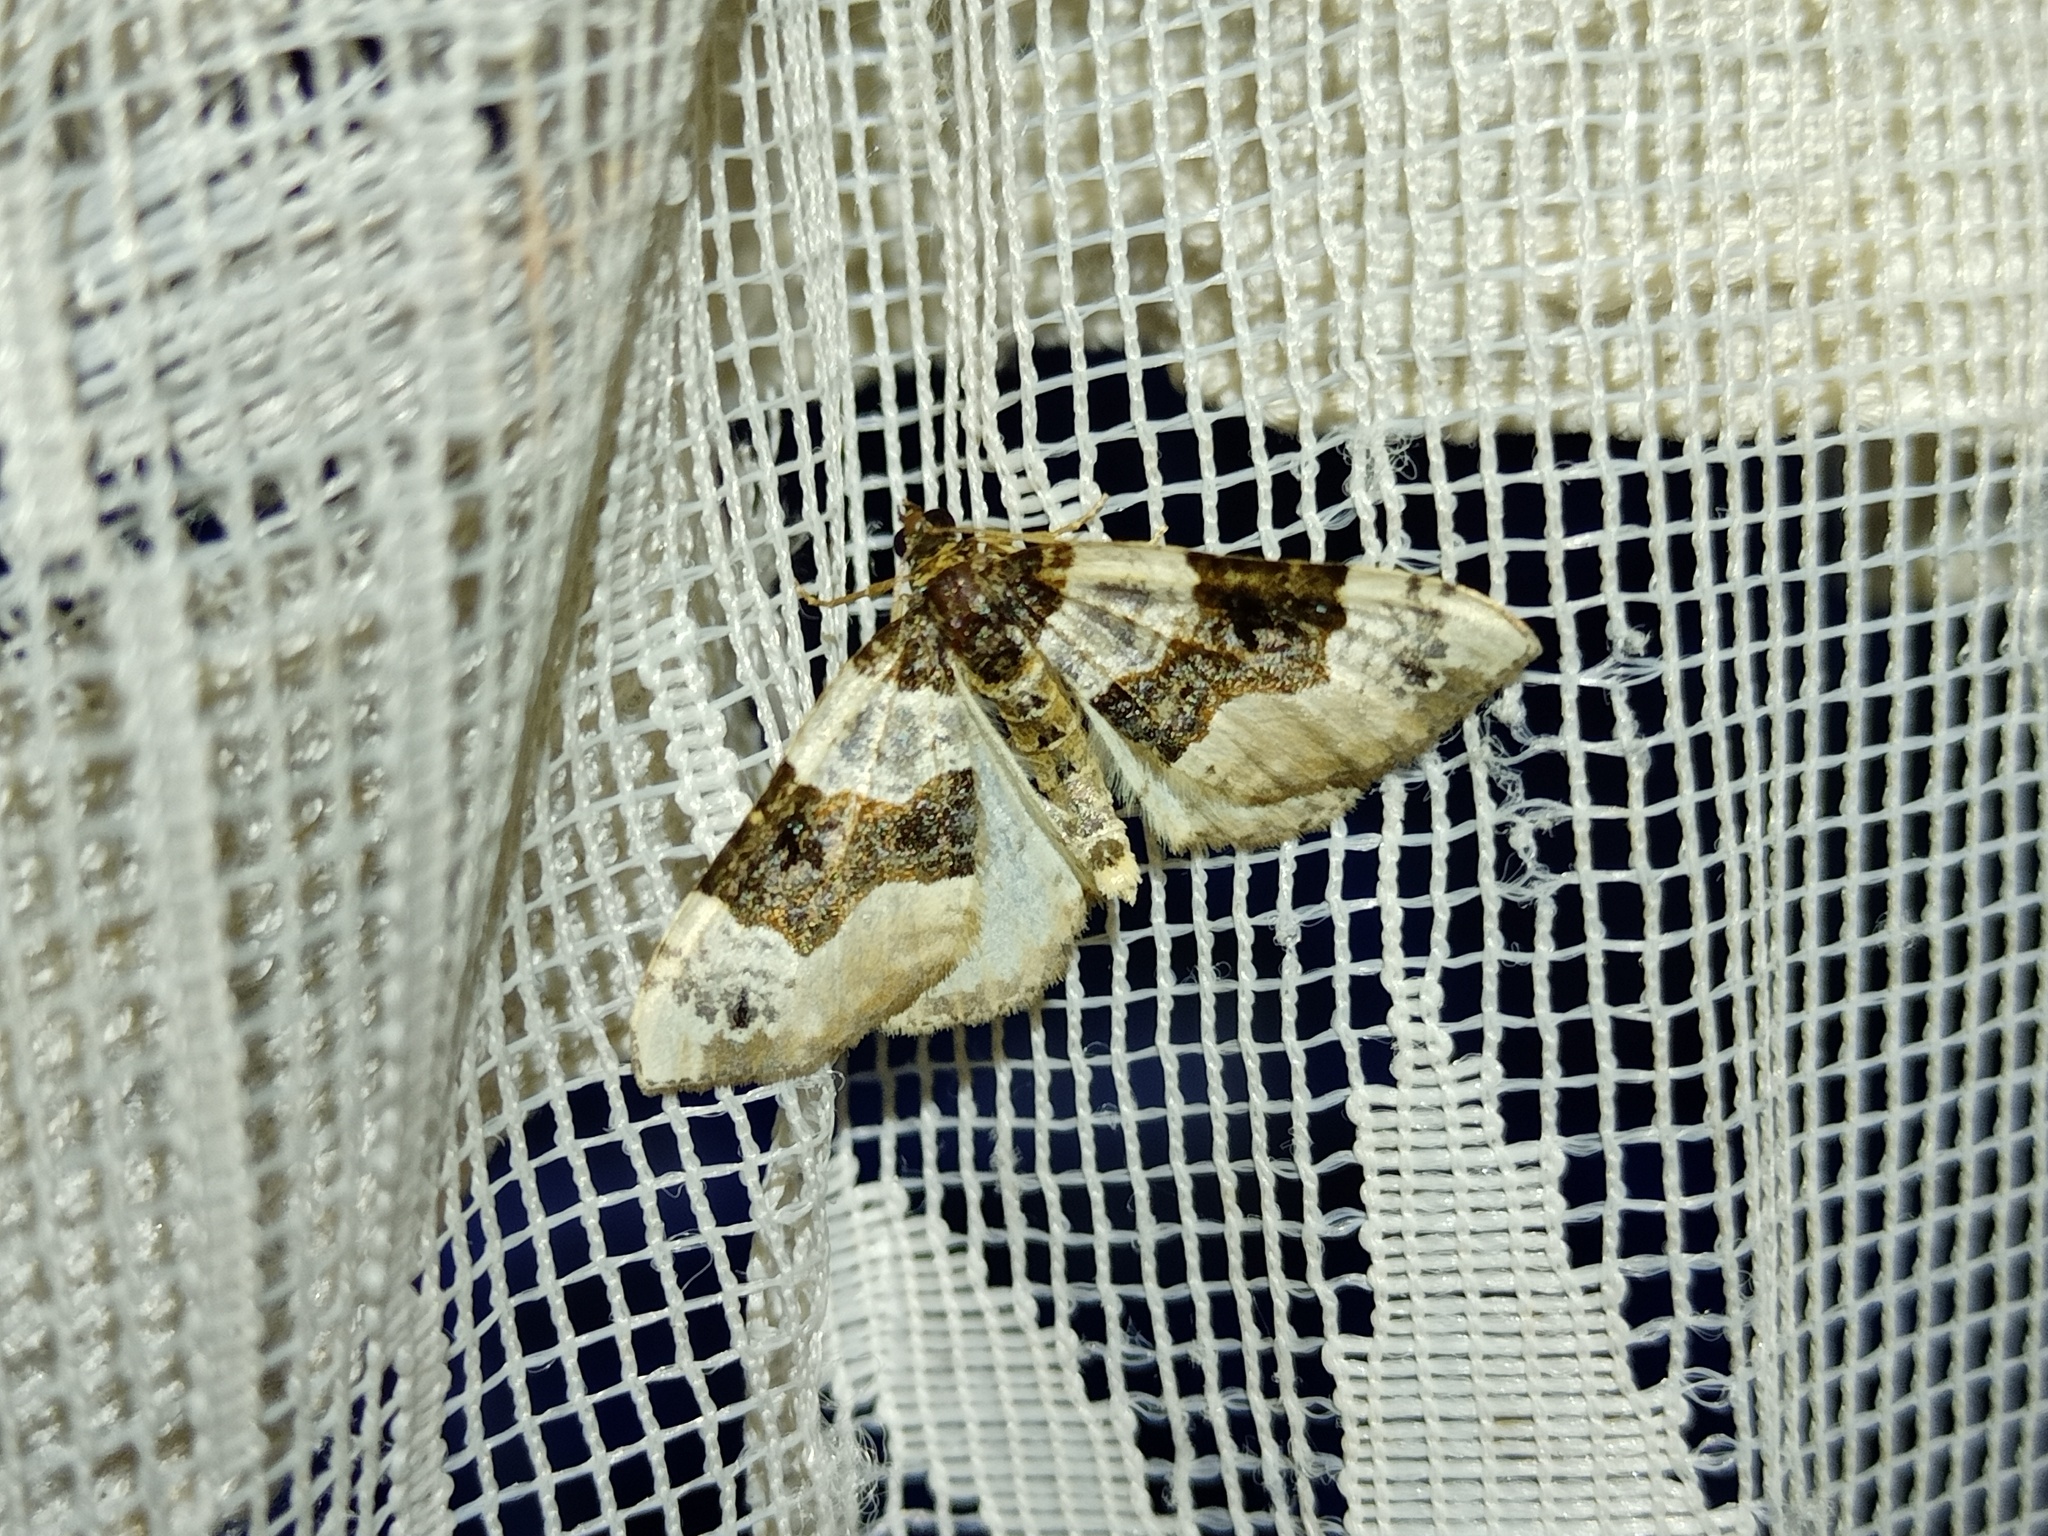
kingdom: Animalia
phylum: Arthropoda
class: Insecta
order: Lepidoptera
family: Geometridae
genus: Cosmorhoe
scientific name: Cosmorhoe ocellata
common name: Purple bar
